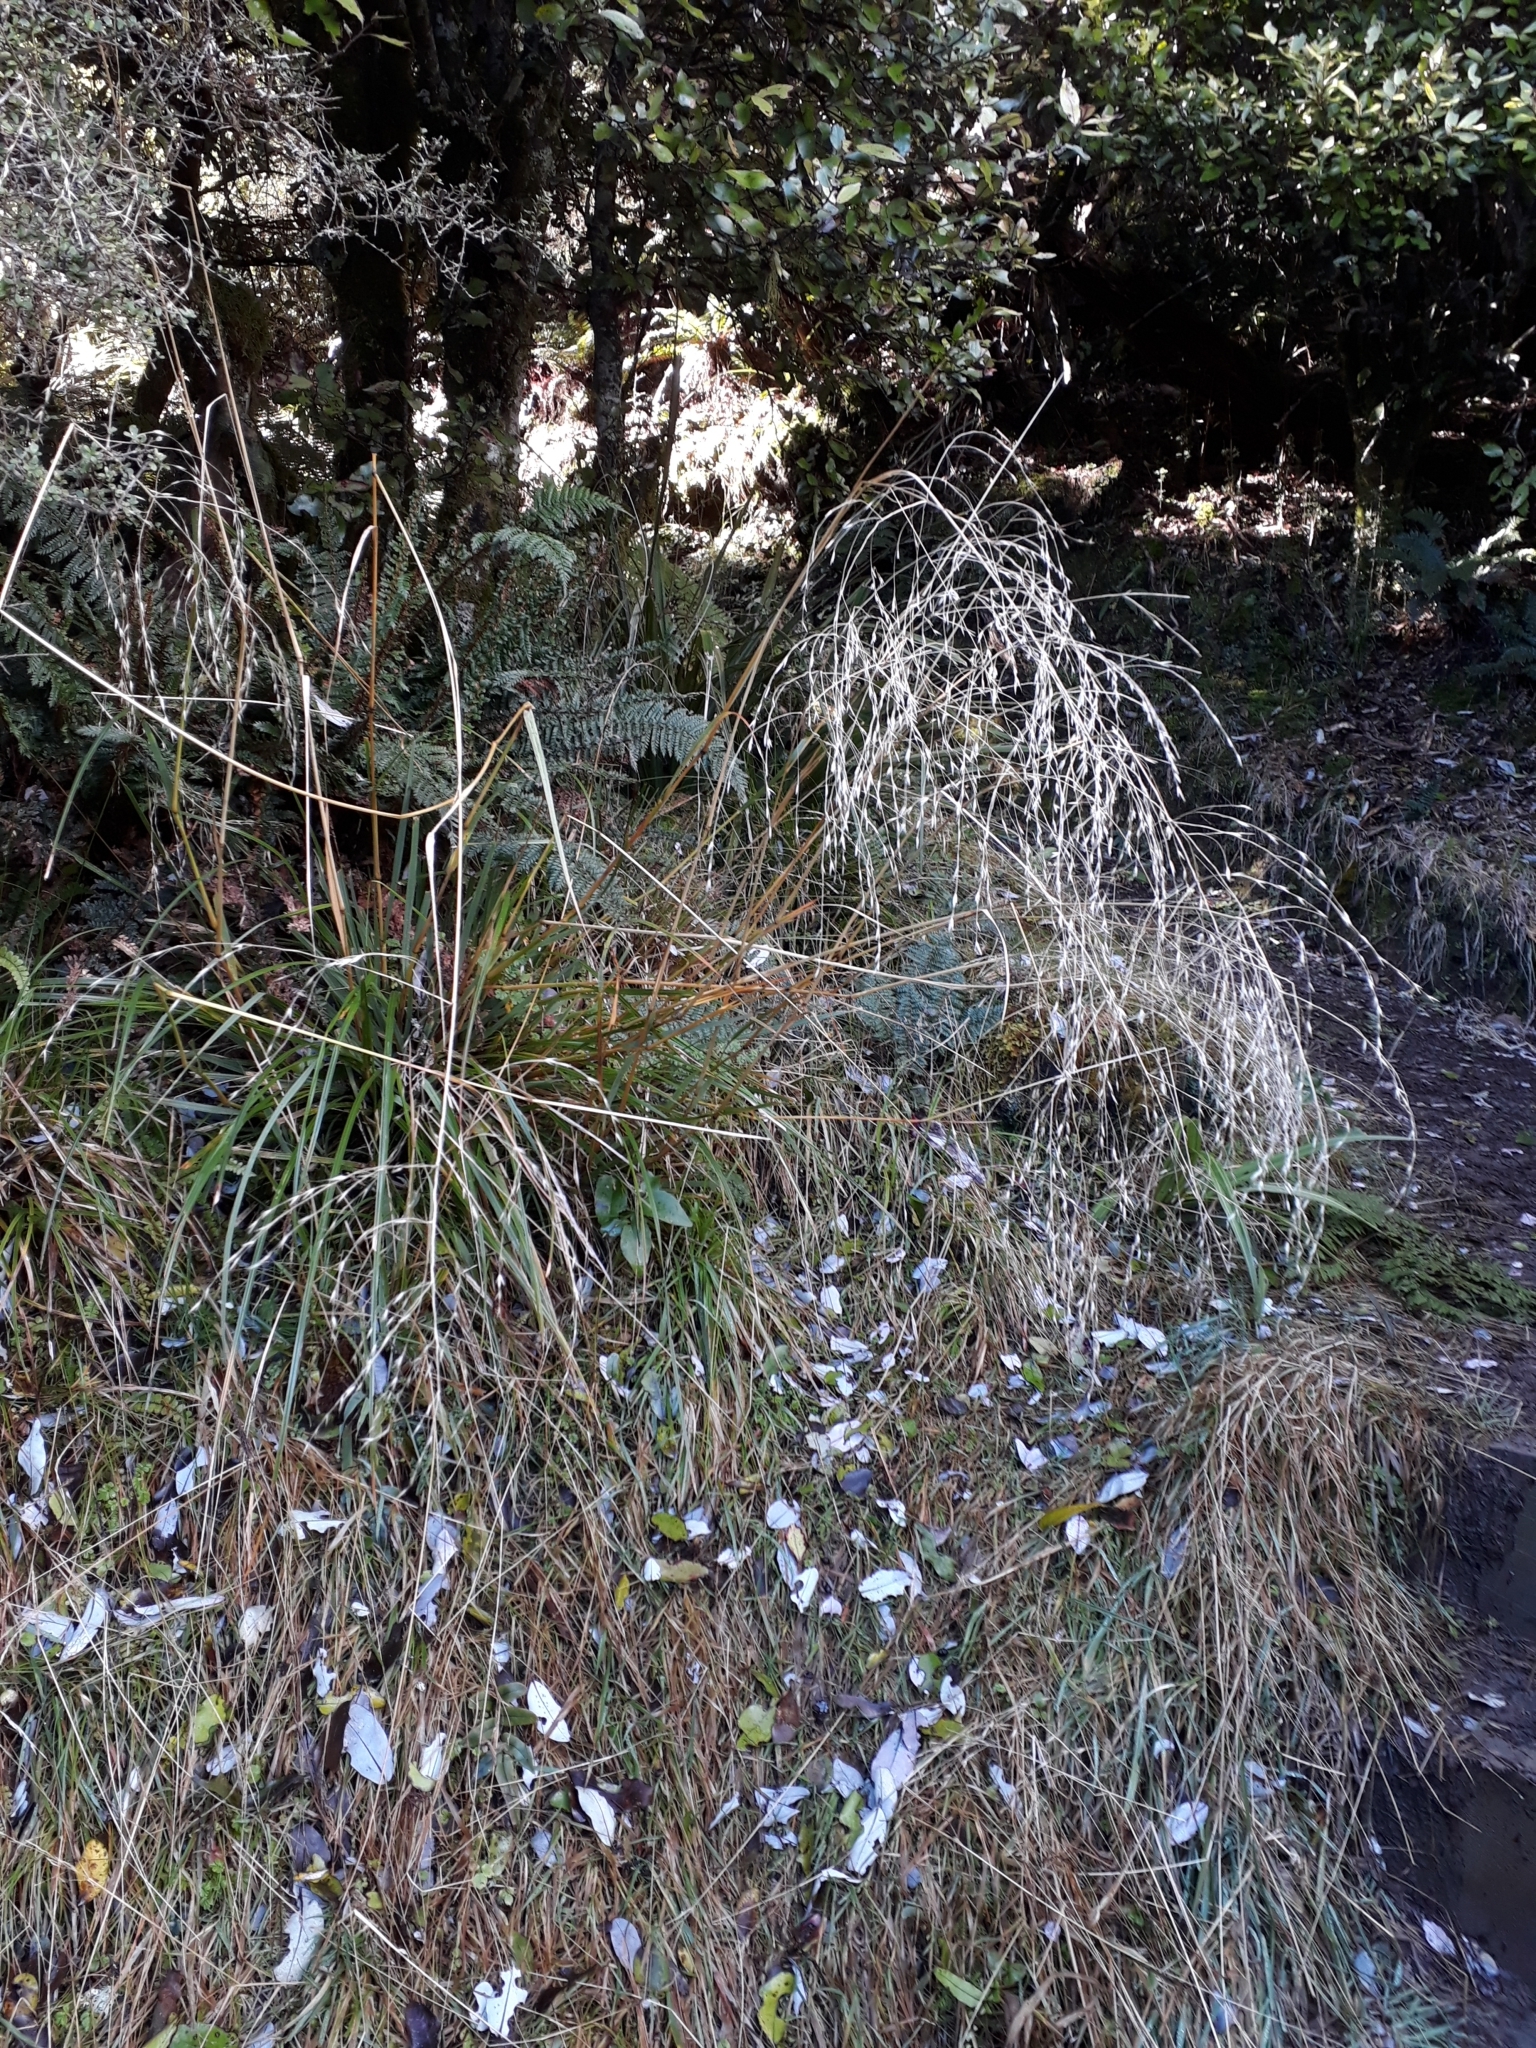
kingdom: Plantae
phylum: Tracheophyta
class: Liliopsida
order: Poales
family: Poaceae
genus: Chionochloa
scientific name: Chionochloa conspicua
